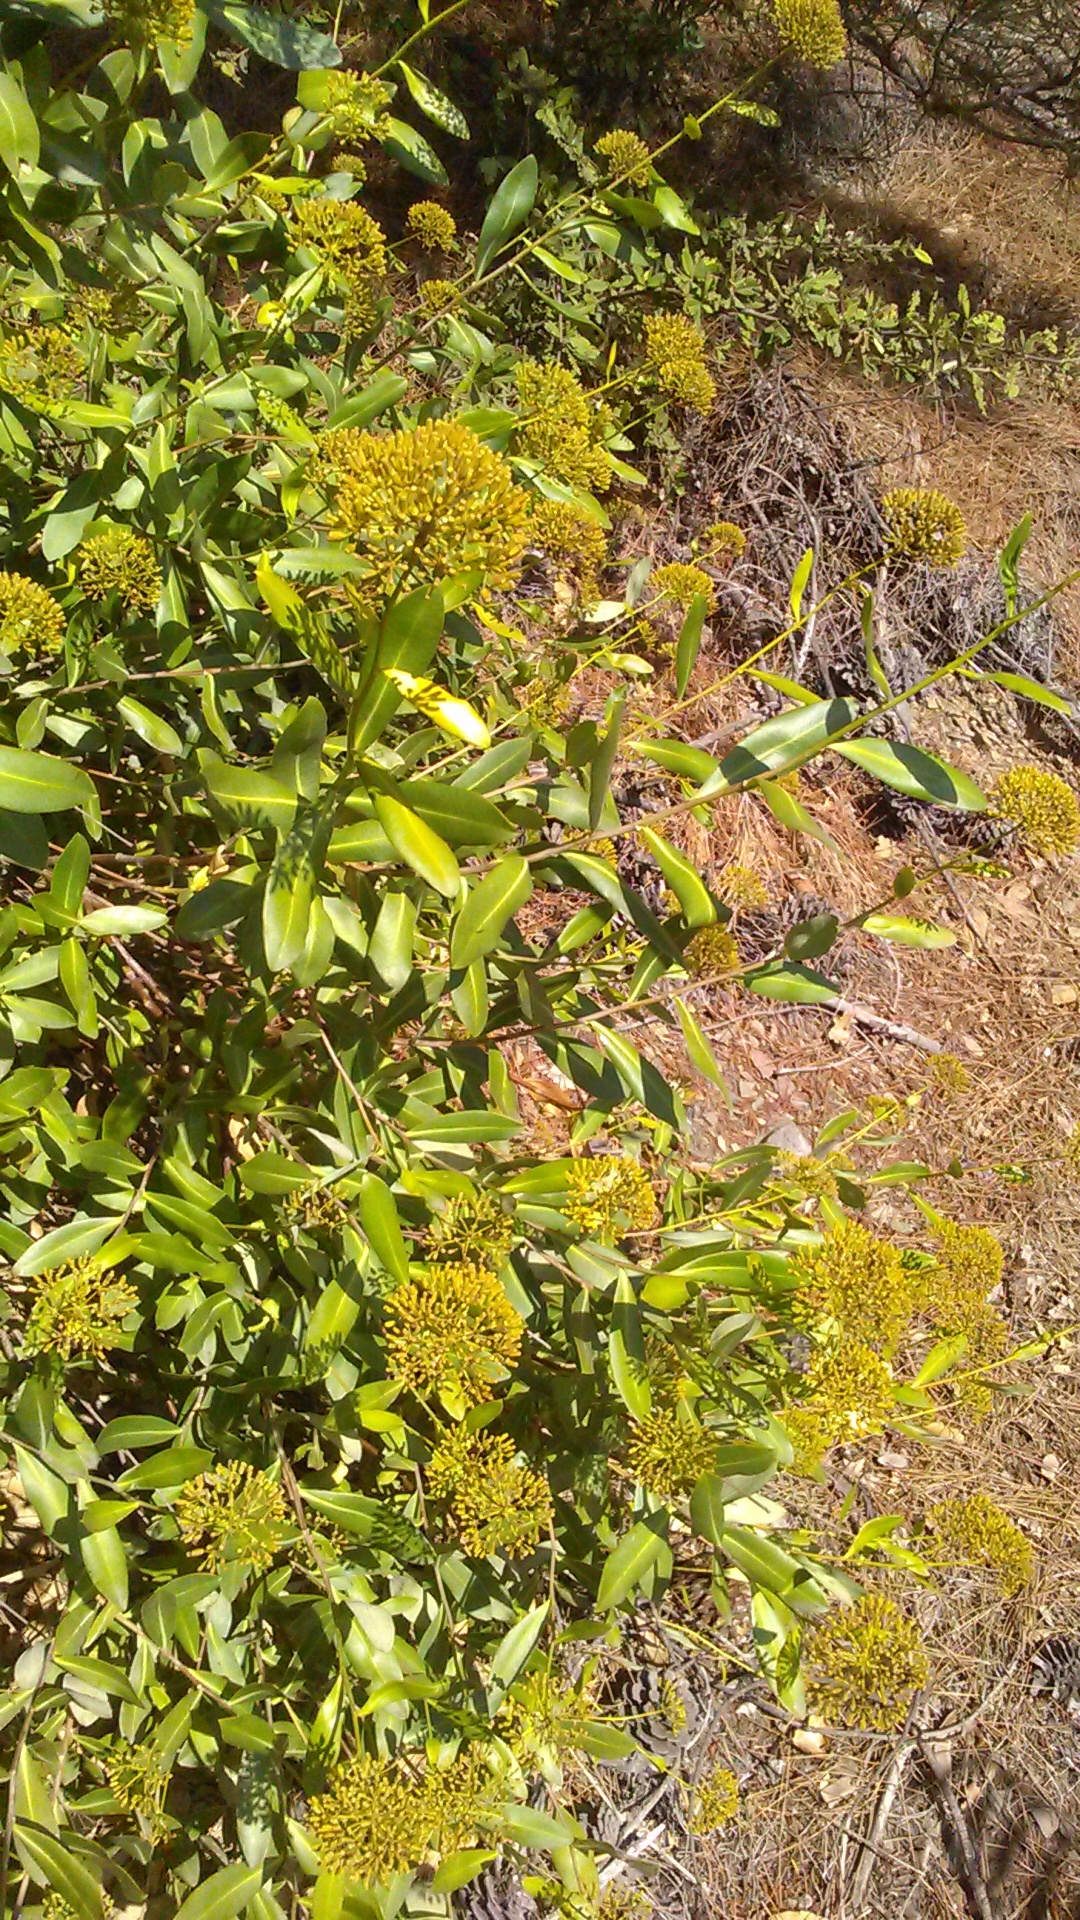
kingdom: Plantae
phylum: Tracheophyta
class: Magnoliopsida
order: Apiales
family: Apiaceae
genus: Bupleurum
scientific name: Bupleurum fruticosum
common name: Shrubby hare's-ear
